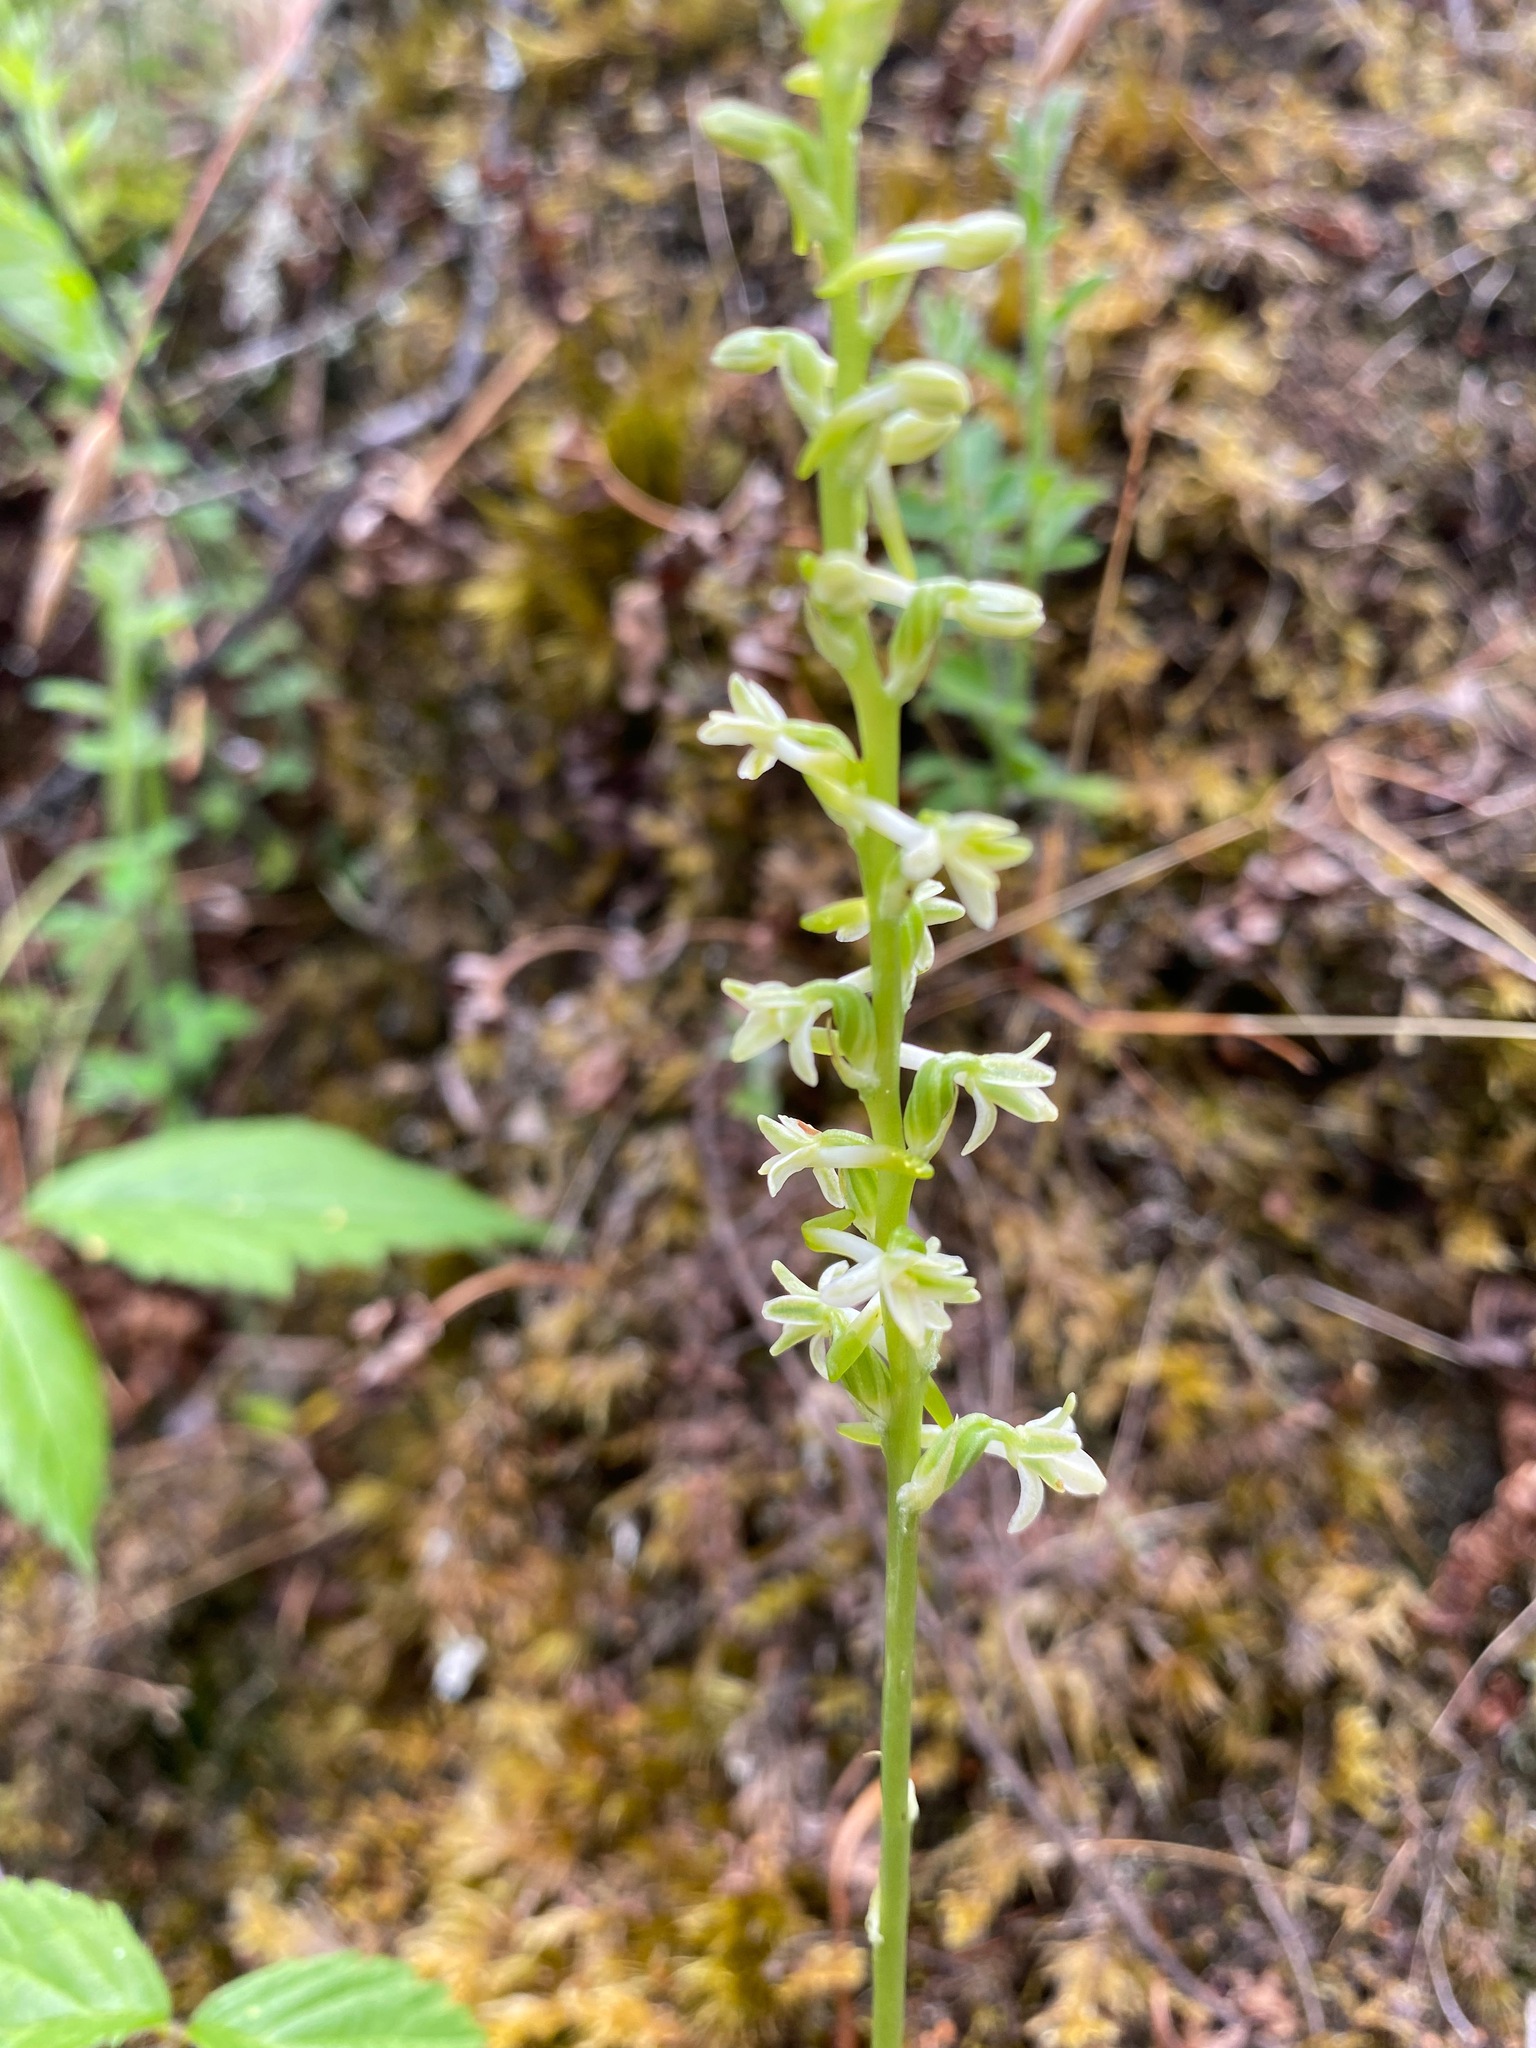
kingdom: Plantae
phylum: Tracheophyta
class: Liliopsida
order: Asparagales
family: Orchidaceae
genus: Platanthera
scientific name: Platanthera transversa
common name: Royal rein orchid
